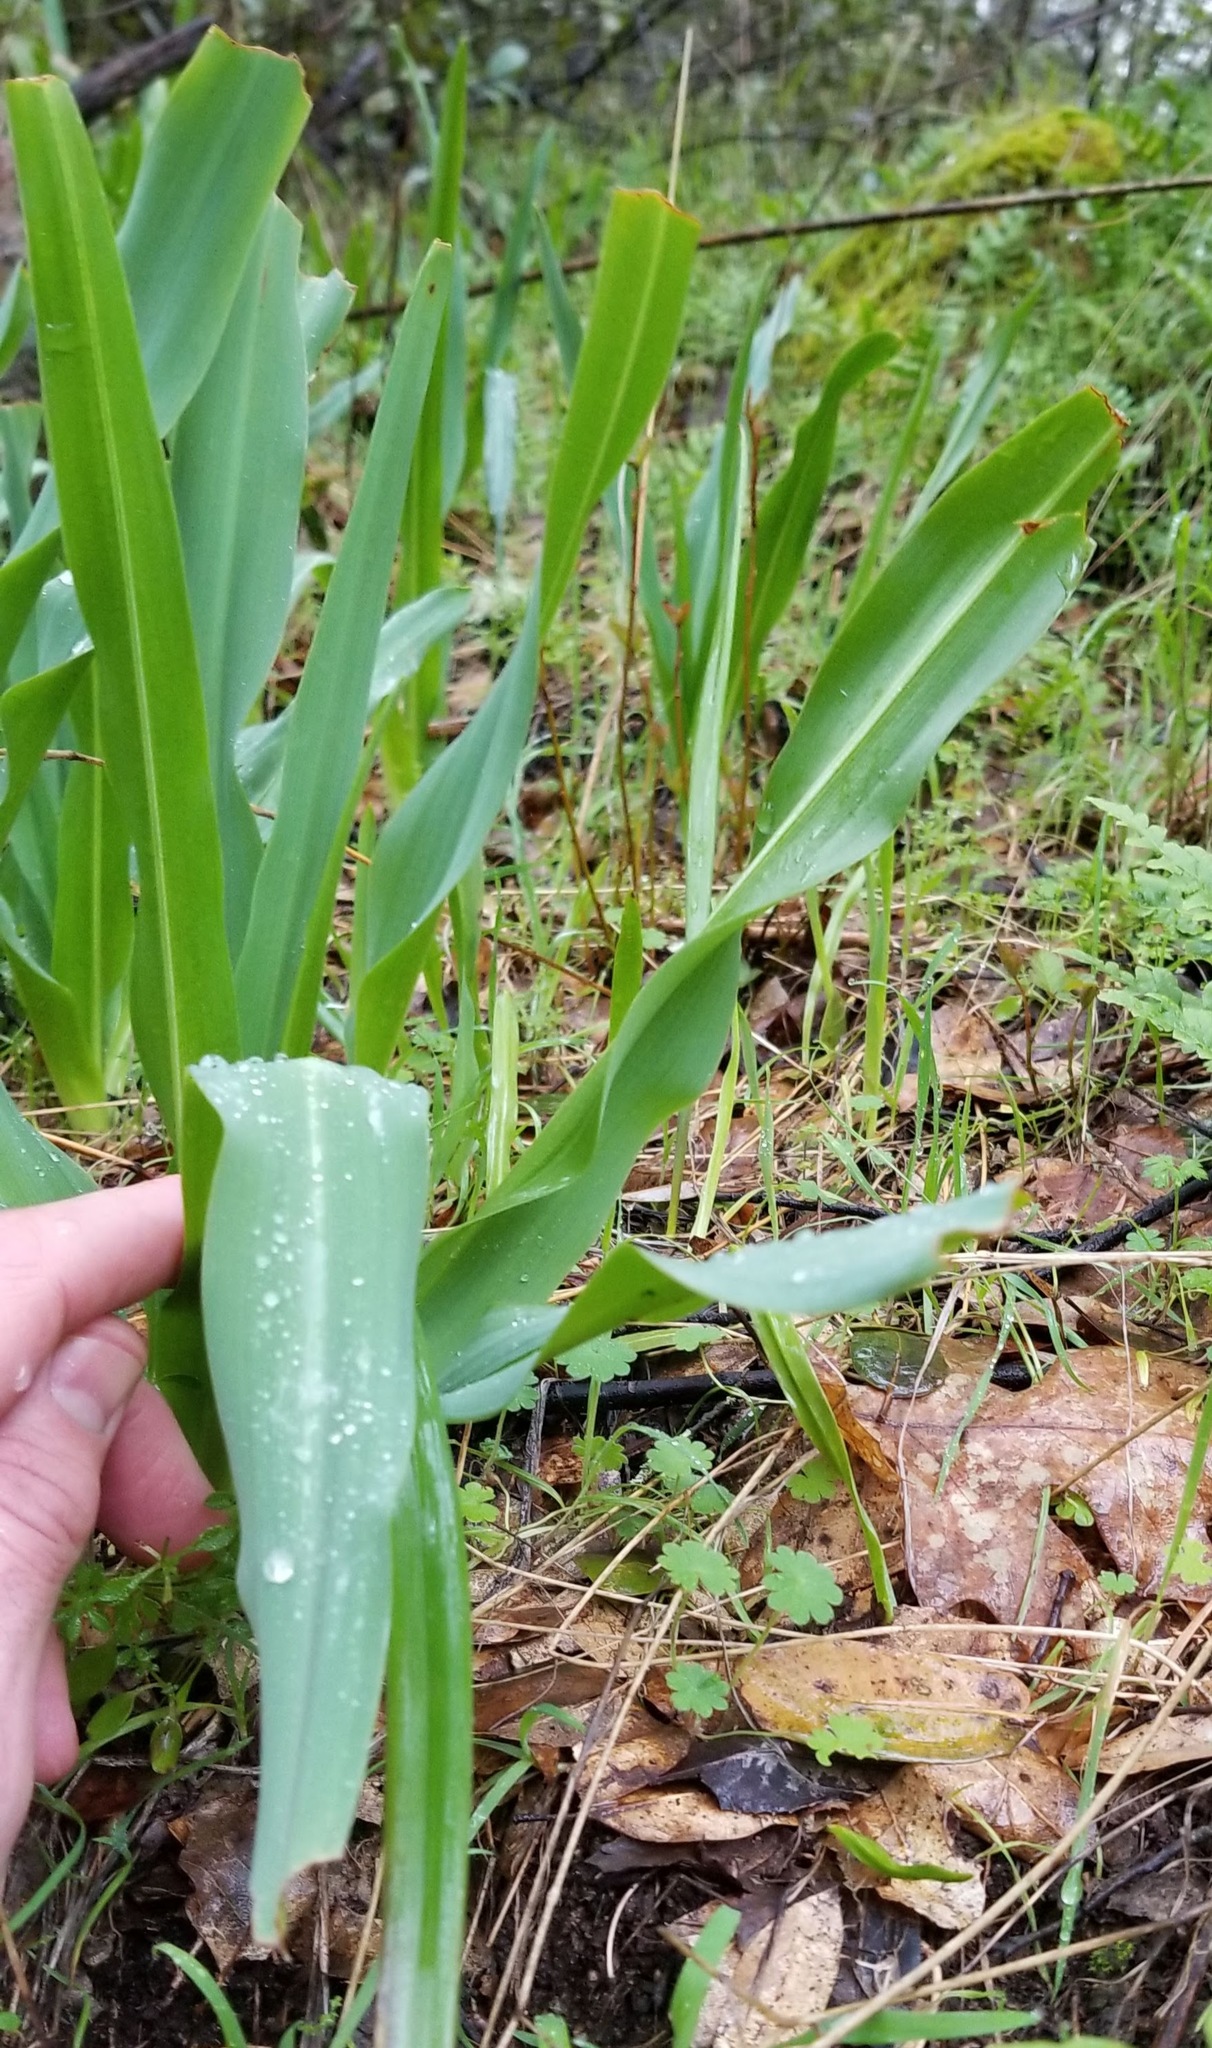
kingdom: Plantae
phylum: Tracheophyta
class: Liliopsida
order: Asparagales
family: Asparagaceae
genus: Chlorogalum
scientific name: Chlorogalum pomeridianum
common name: Amole
